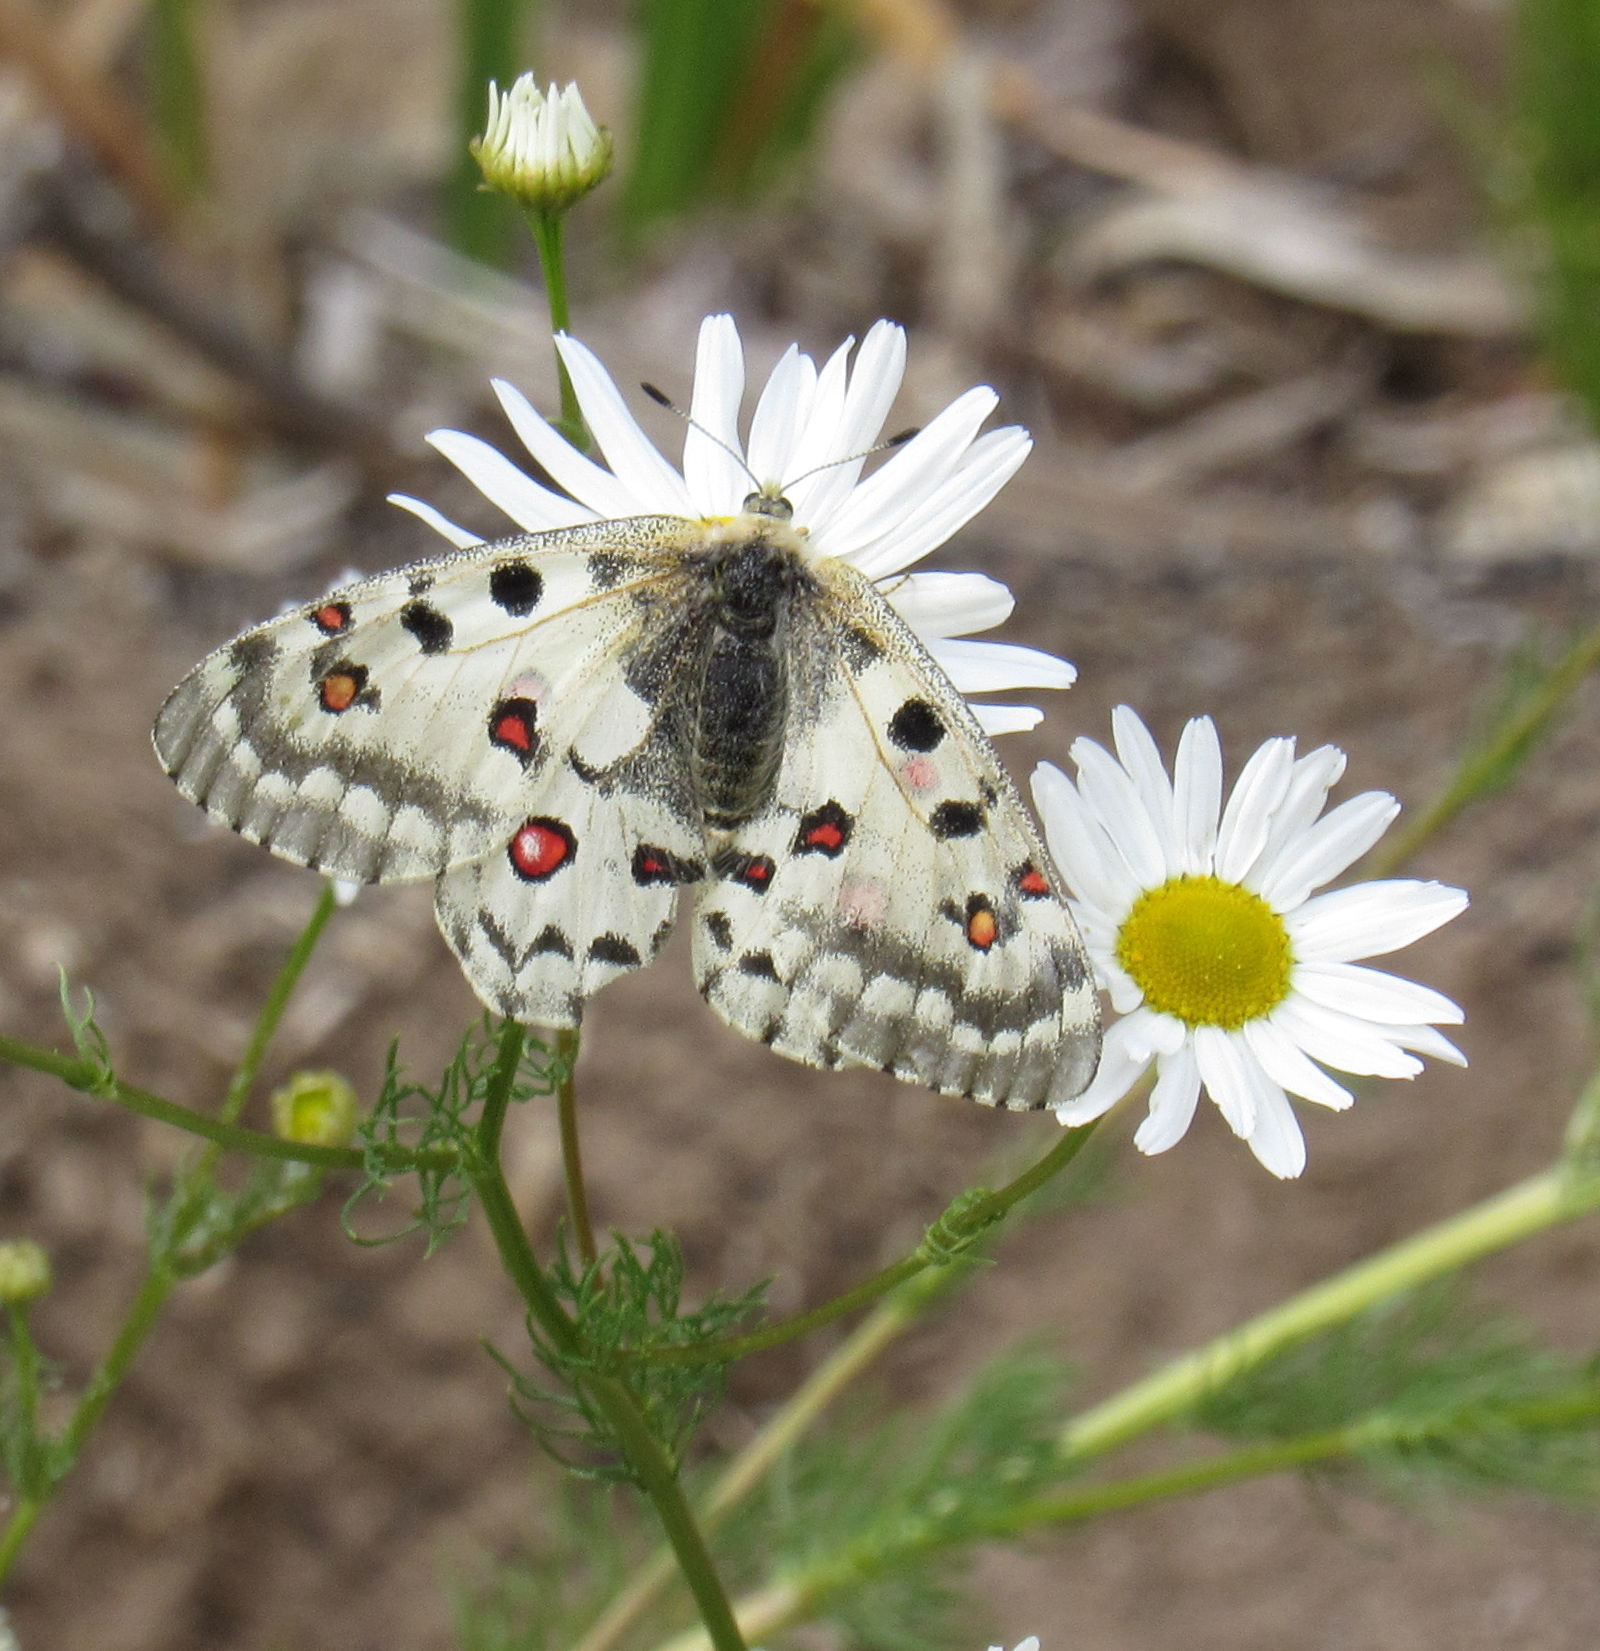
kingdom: Animalia
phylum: Arthropoda
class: Insecta
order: Lepidoptera
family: Papilionidae
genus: Parnassius
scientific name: Parnassius smintheus
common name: Mountain parnassian
